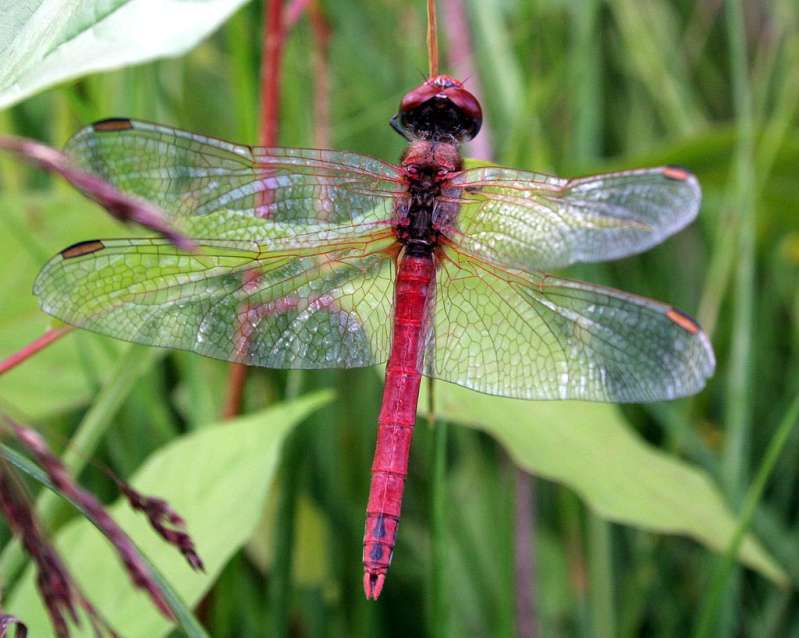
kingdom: Animalia
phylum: Arthropoda
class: Insecta
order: Odonata
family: Libellulidae
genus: Sympetrum
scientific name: Sympetrum fonscolombii
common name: Red-veined darter
